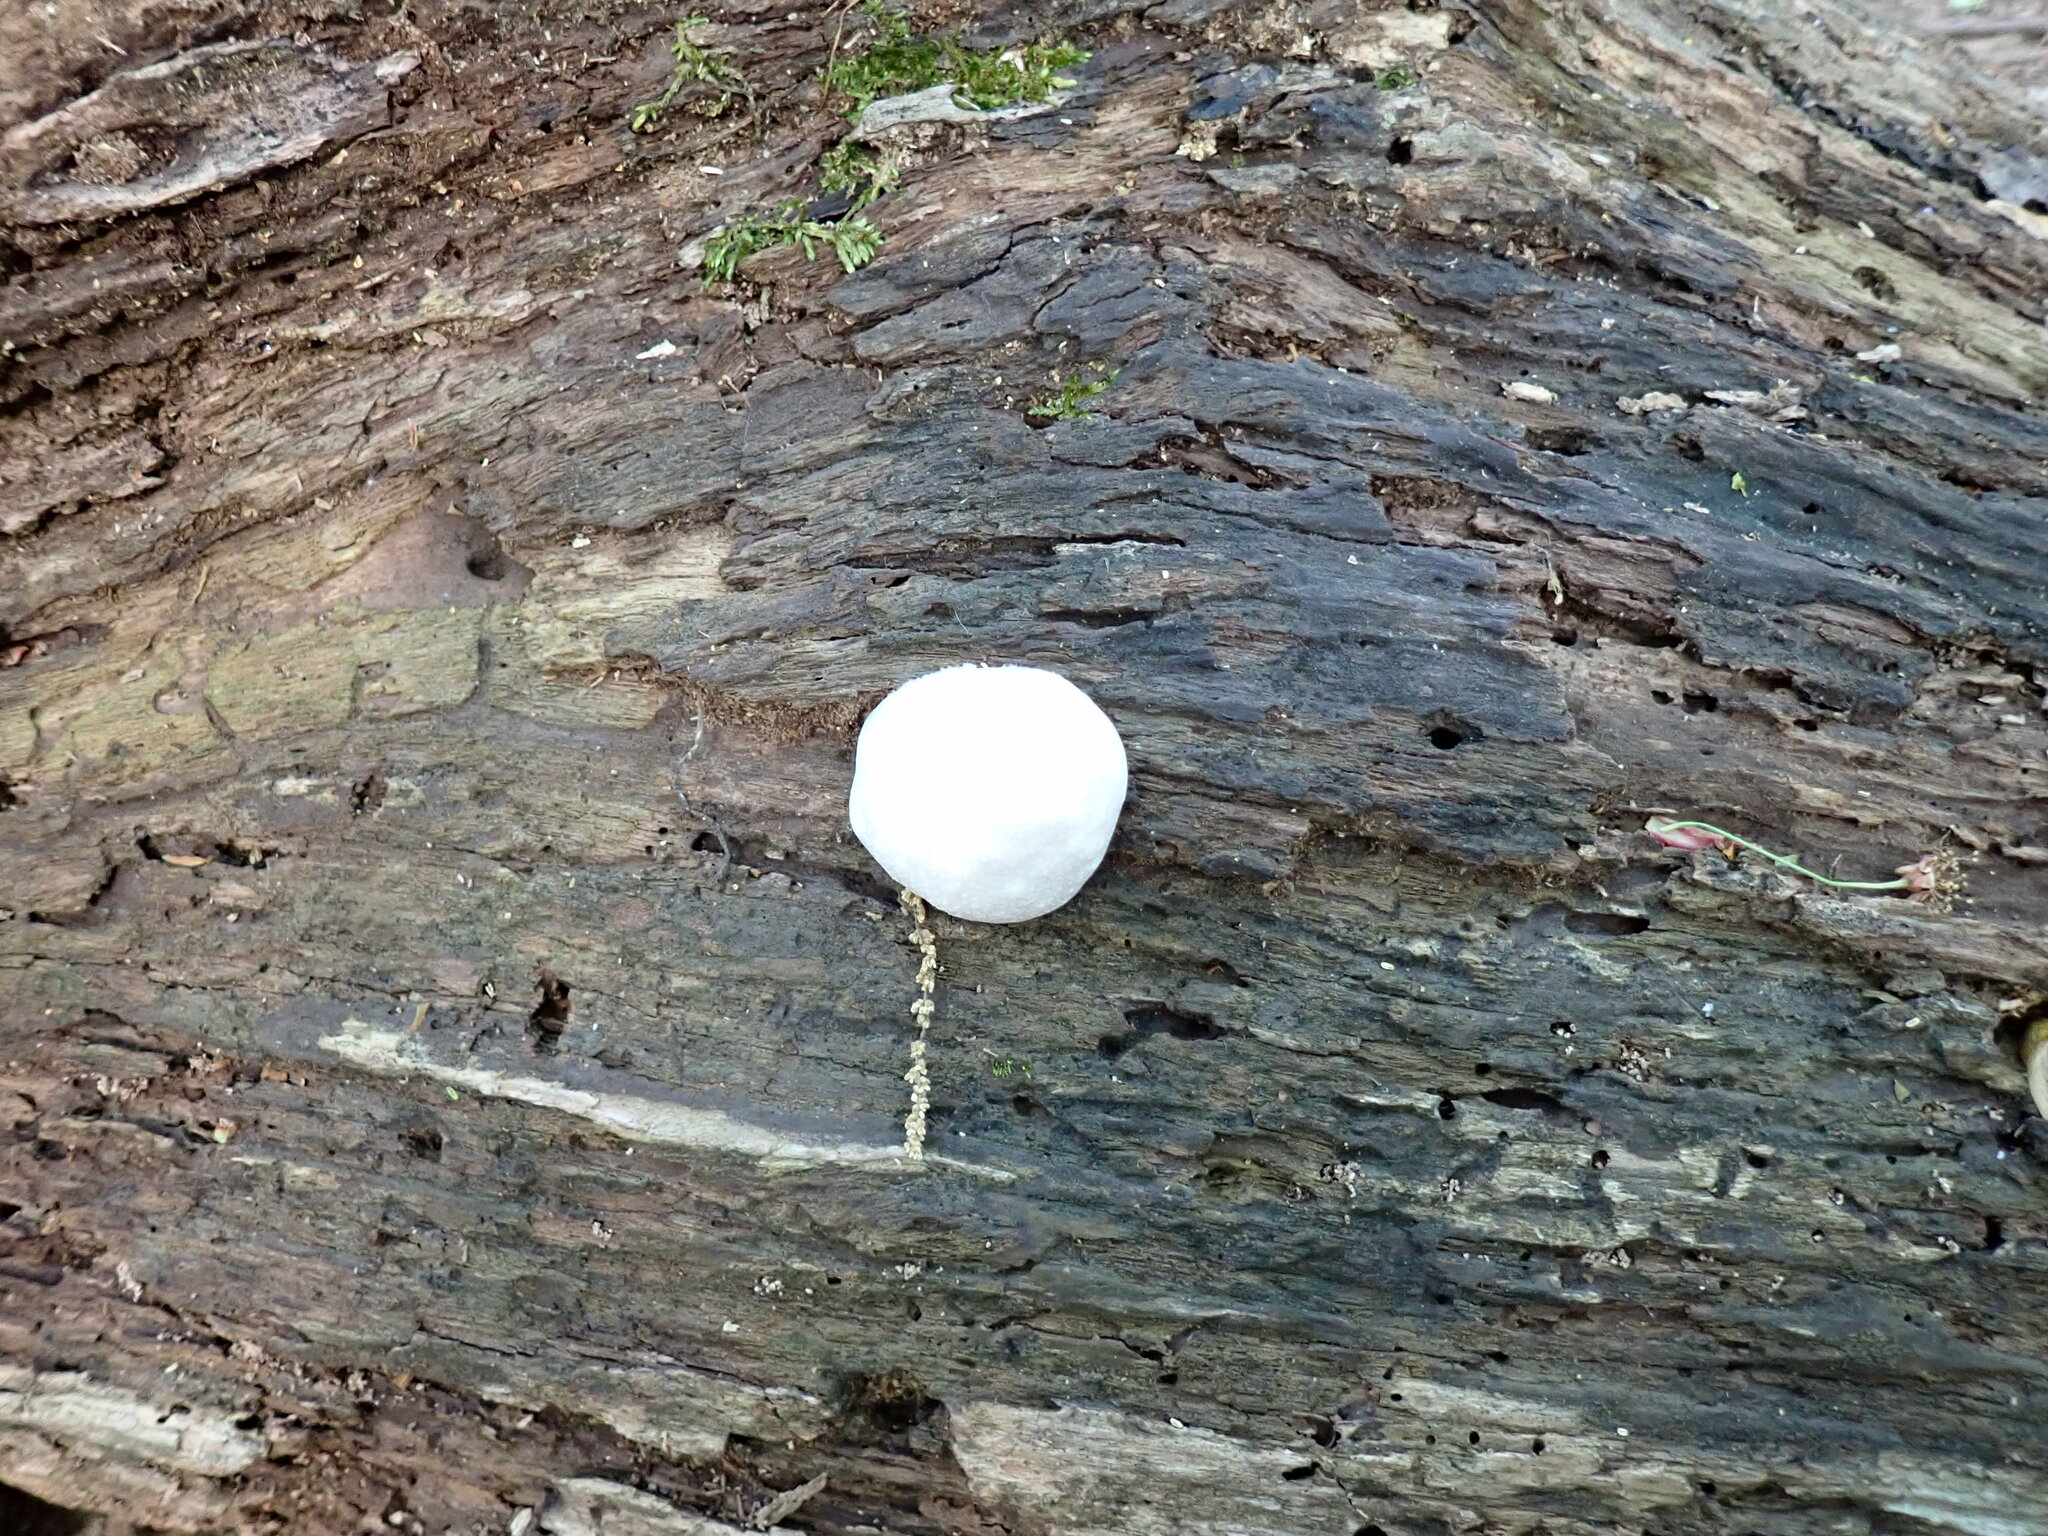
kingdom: Protozoa
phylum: Mycetozoa
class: Myxomycetes
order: Cribrariales
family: Tubiferaceae
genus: Reticularia
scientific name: Reticularia lycoperdon
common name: False puffball
